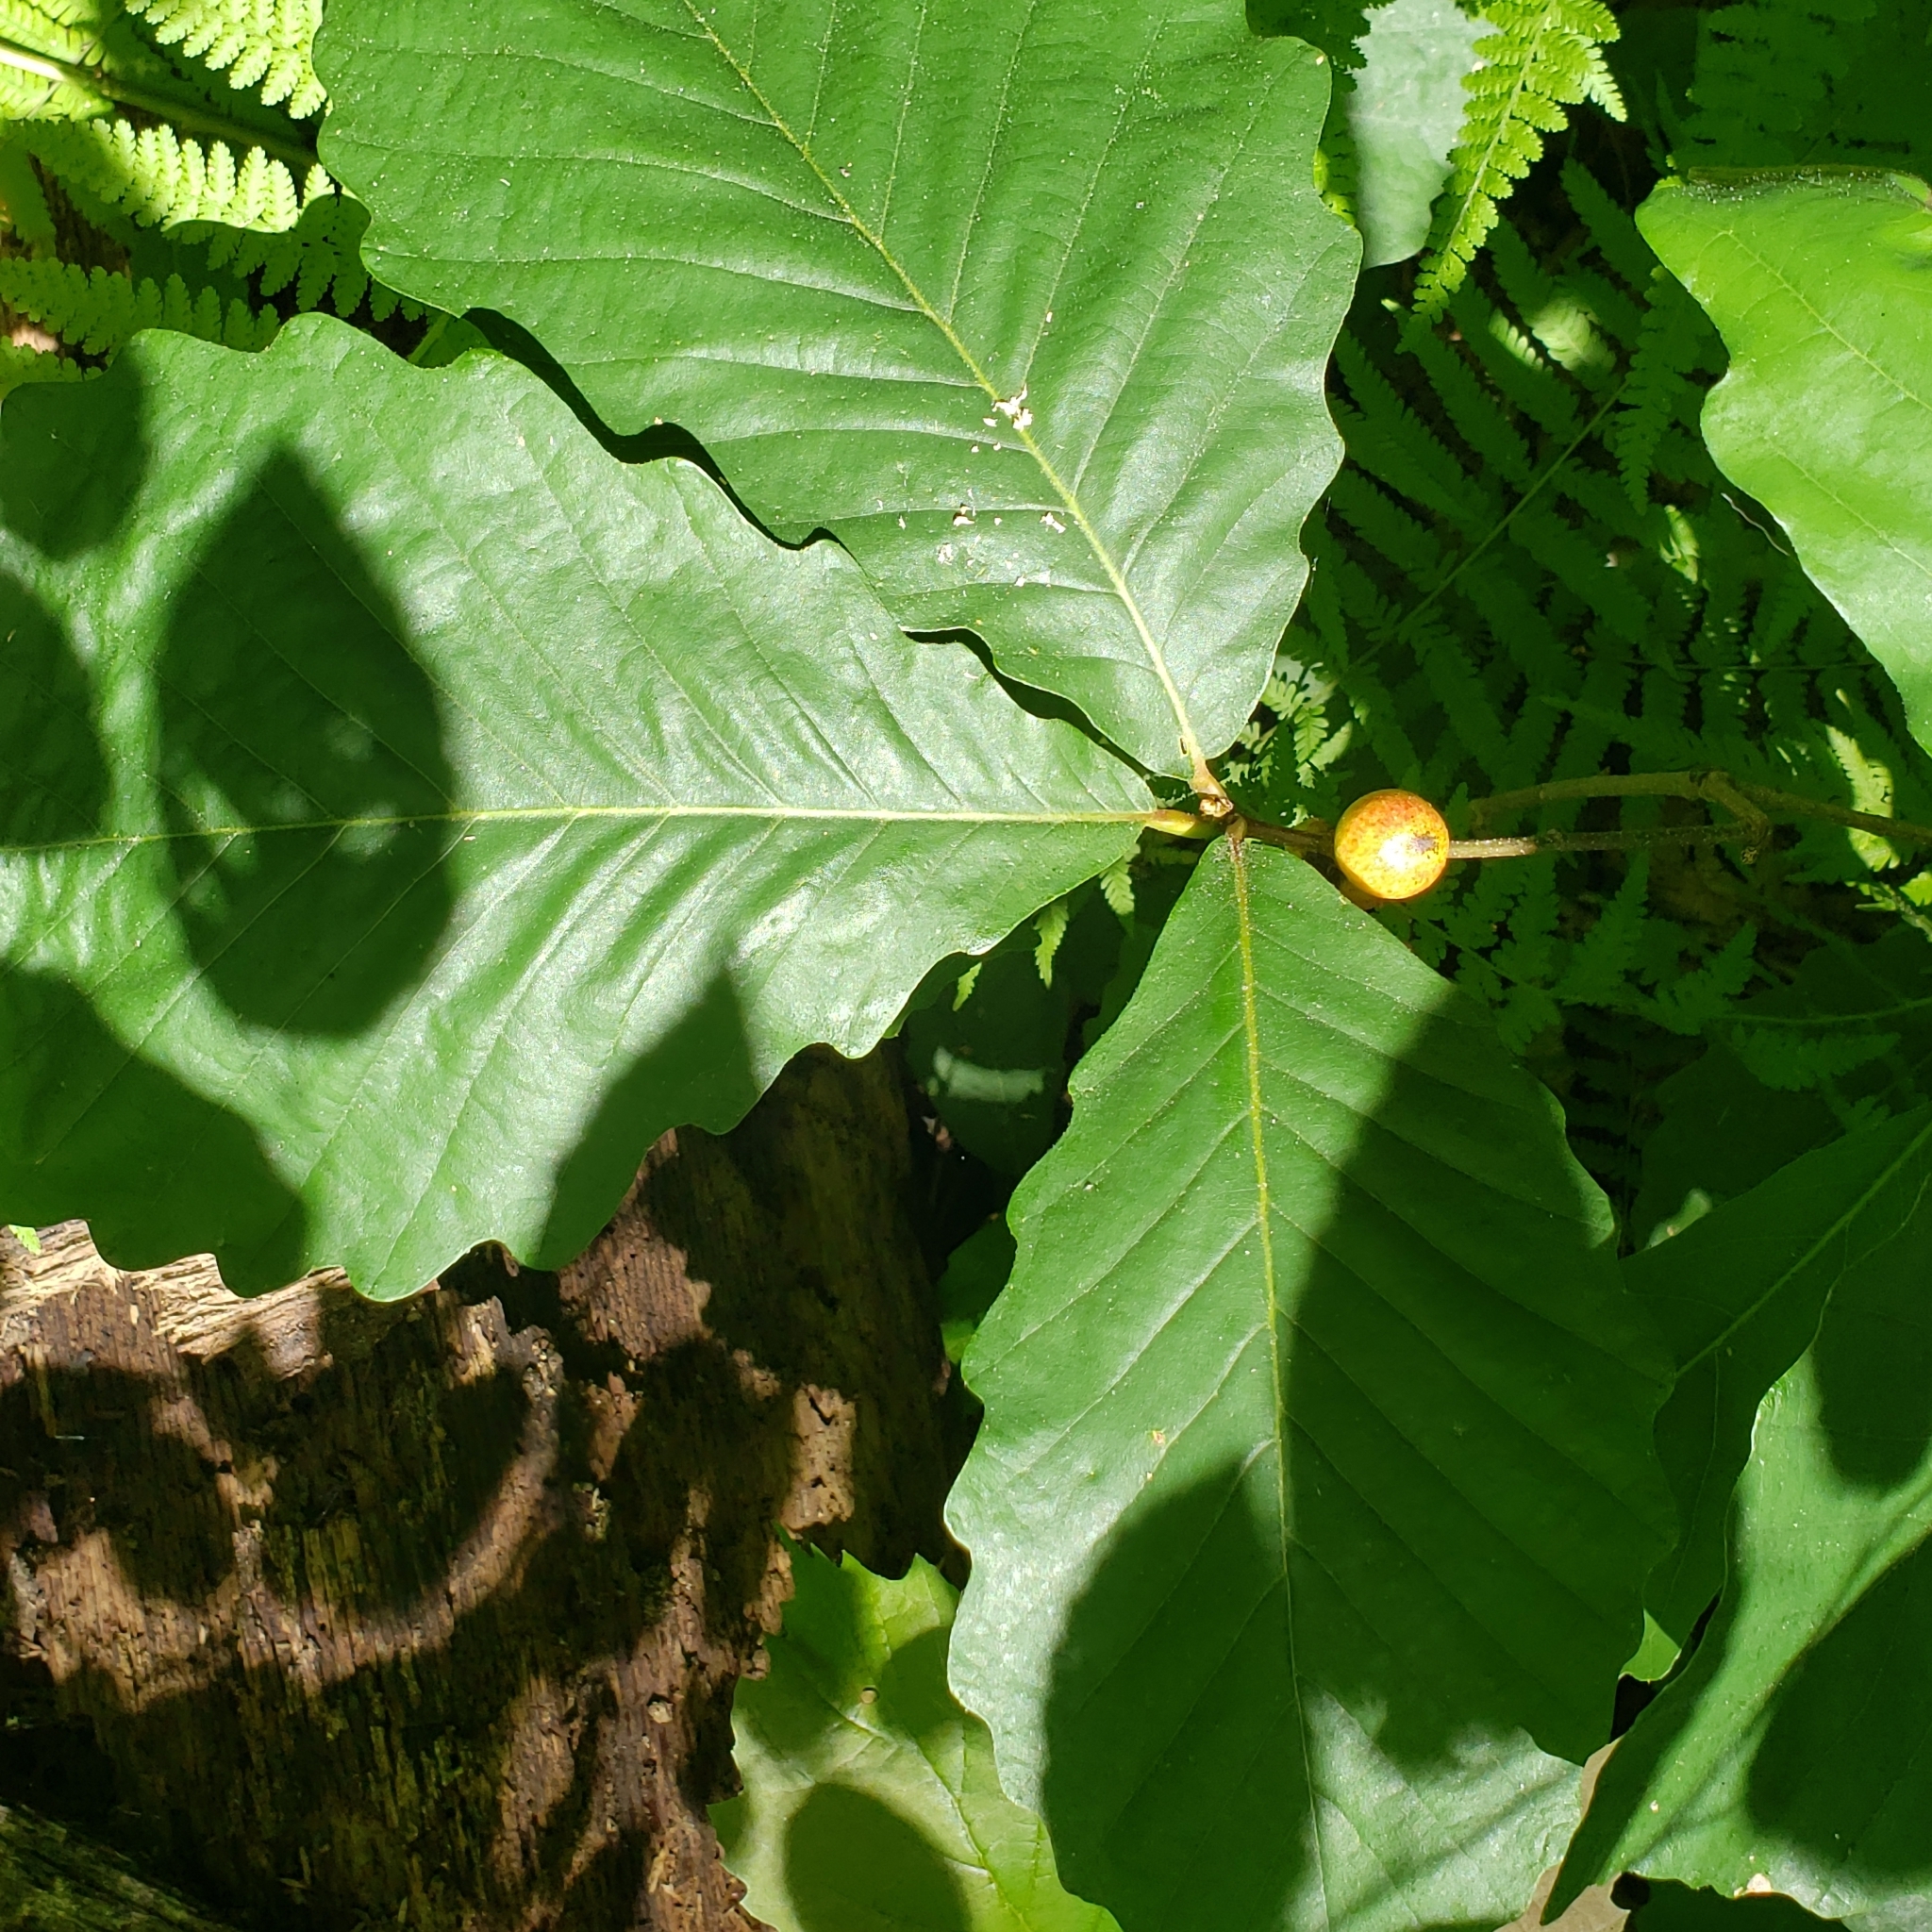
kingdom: Animalia
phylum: Arthropoda
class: Insecta
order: Hymenoptera
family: Cynipidae
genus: Disholcaspis
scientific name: Disholcaspis quercusglobulus
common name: Round bullet gall wasp
